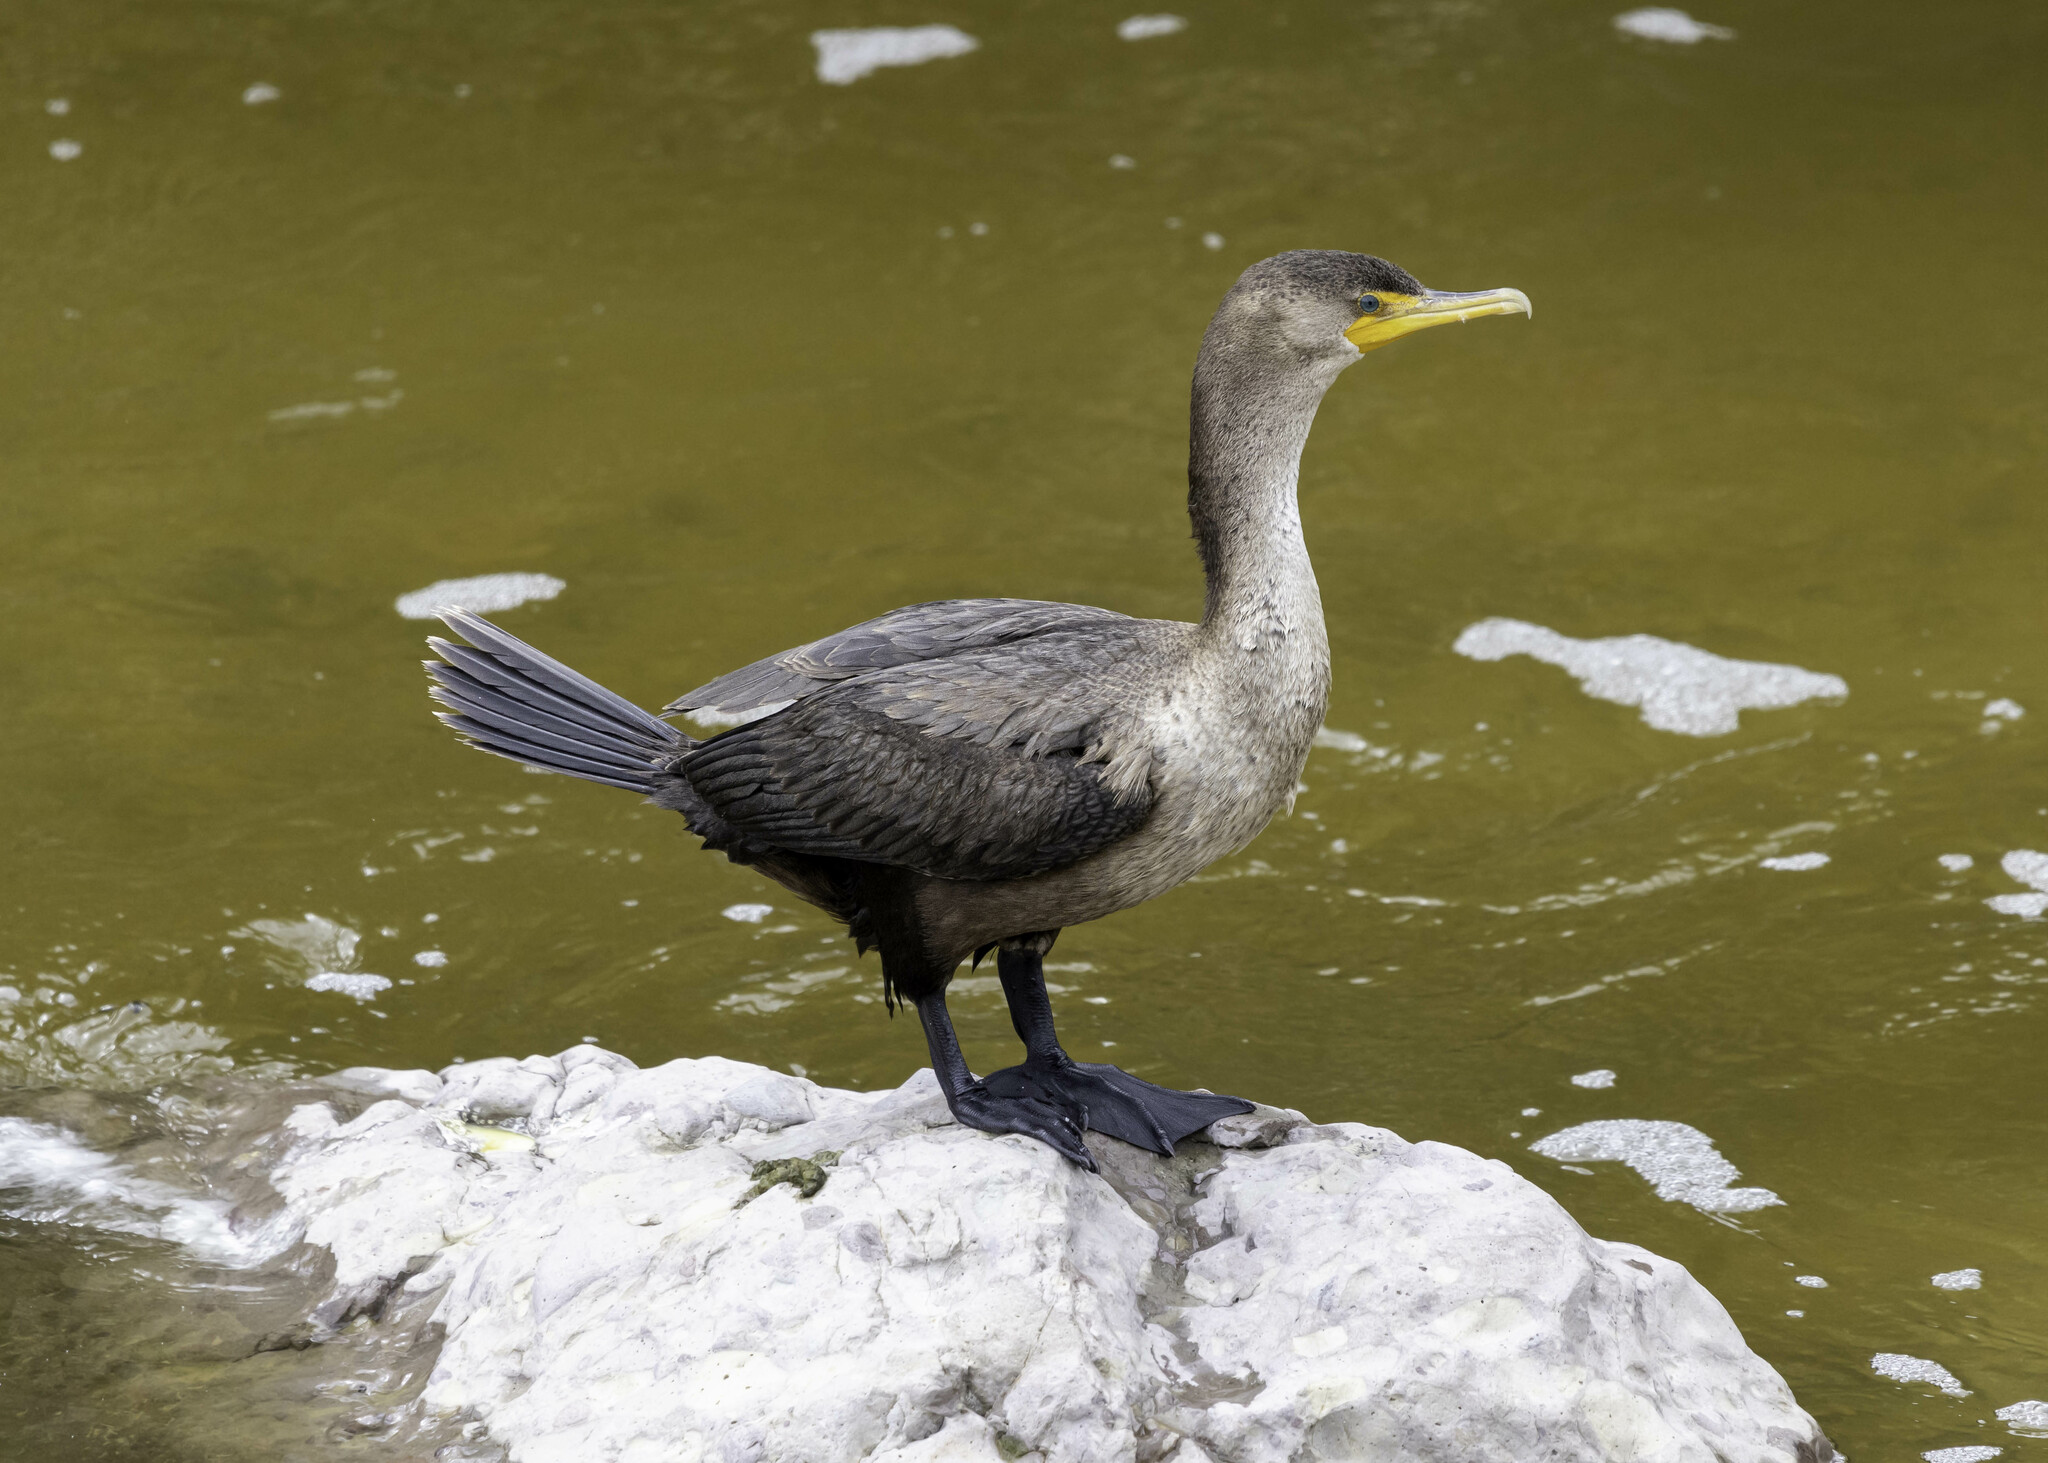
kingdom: Animalia
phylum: Chordata
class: Aves
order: Suliformes
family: Phalacrocoracidae
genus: Phalacrocorax
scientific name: Phalacrocorax auritus
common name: Double-crested cormorant
